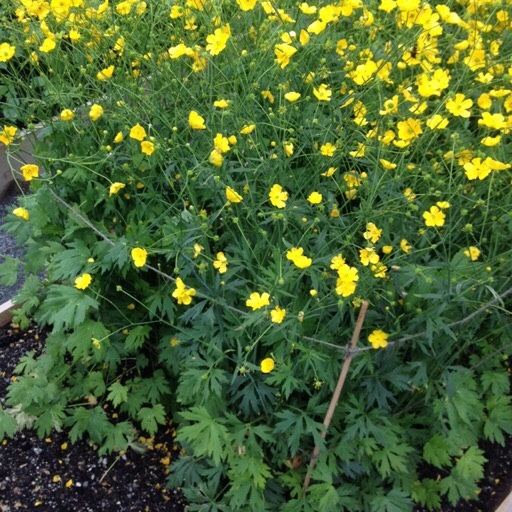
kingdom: Plantae
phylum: Tracheophyta
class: Magnoliopsida
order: Ranunculales
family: Ranunculaceae
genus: Ranunculus
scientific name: Ranunculus acris
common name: Meadow buttercup
